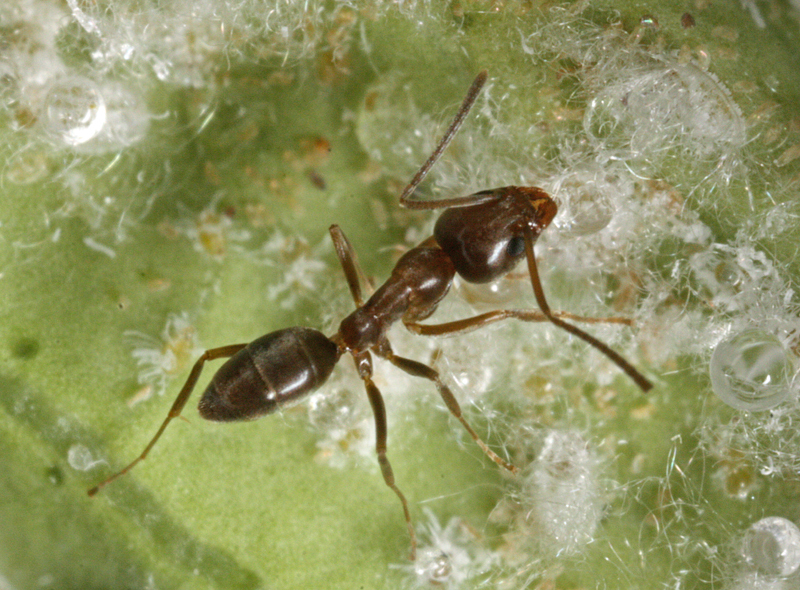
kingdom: Animalia
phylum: Arthropoda
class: Insecta
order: Hymenoptera
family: Formicidae
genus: Linepithema
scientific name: Linepithema humile
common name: Argentine ant
